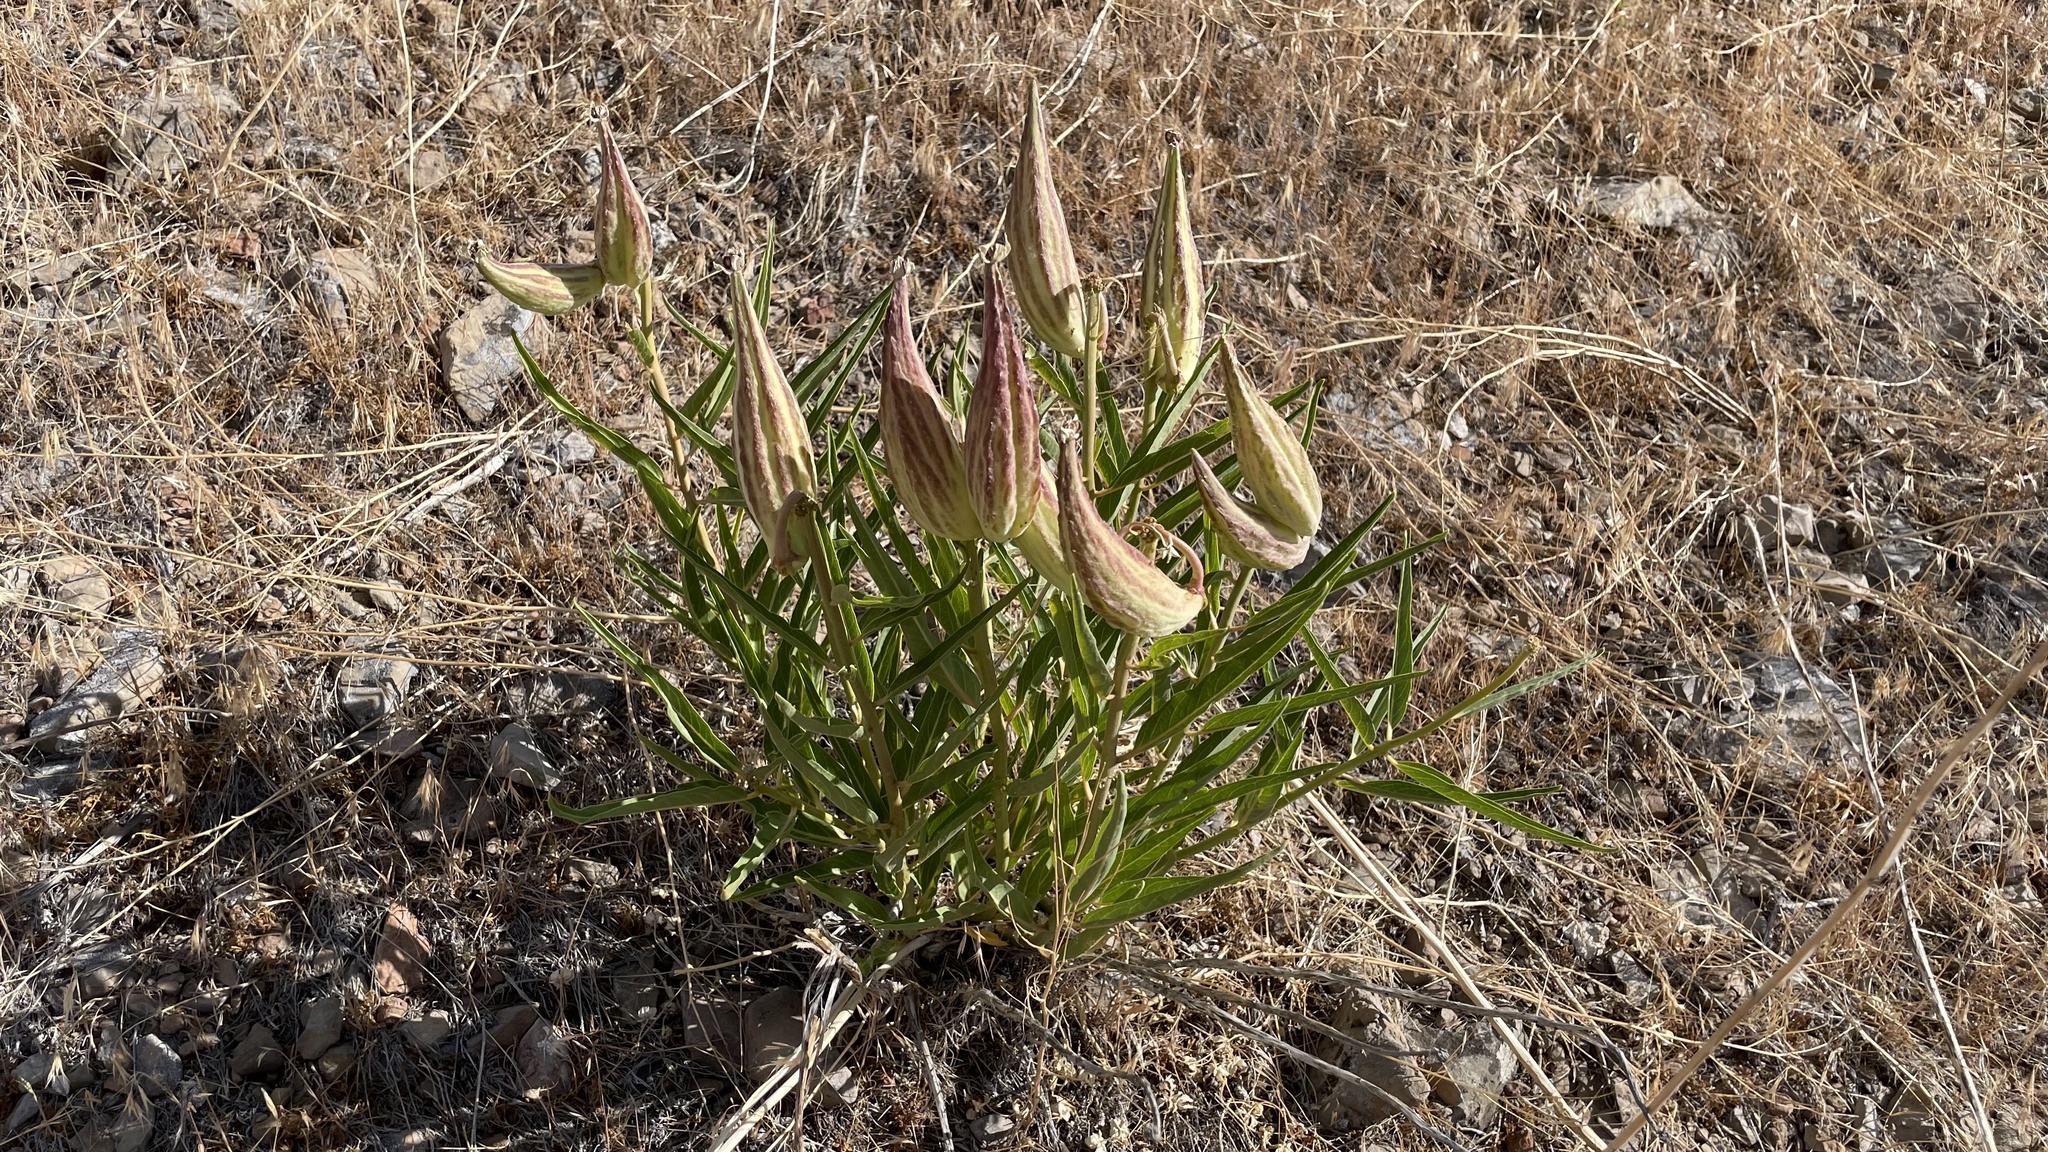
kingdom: Plantae
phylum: Tracheophyta
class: Magnoliopsida
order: Gentianales
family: Apocynaceae
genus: Asclepias
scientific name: Asclepias asperula
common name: Antelope horns
